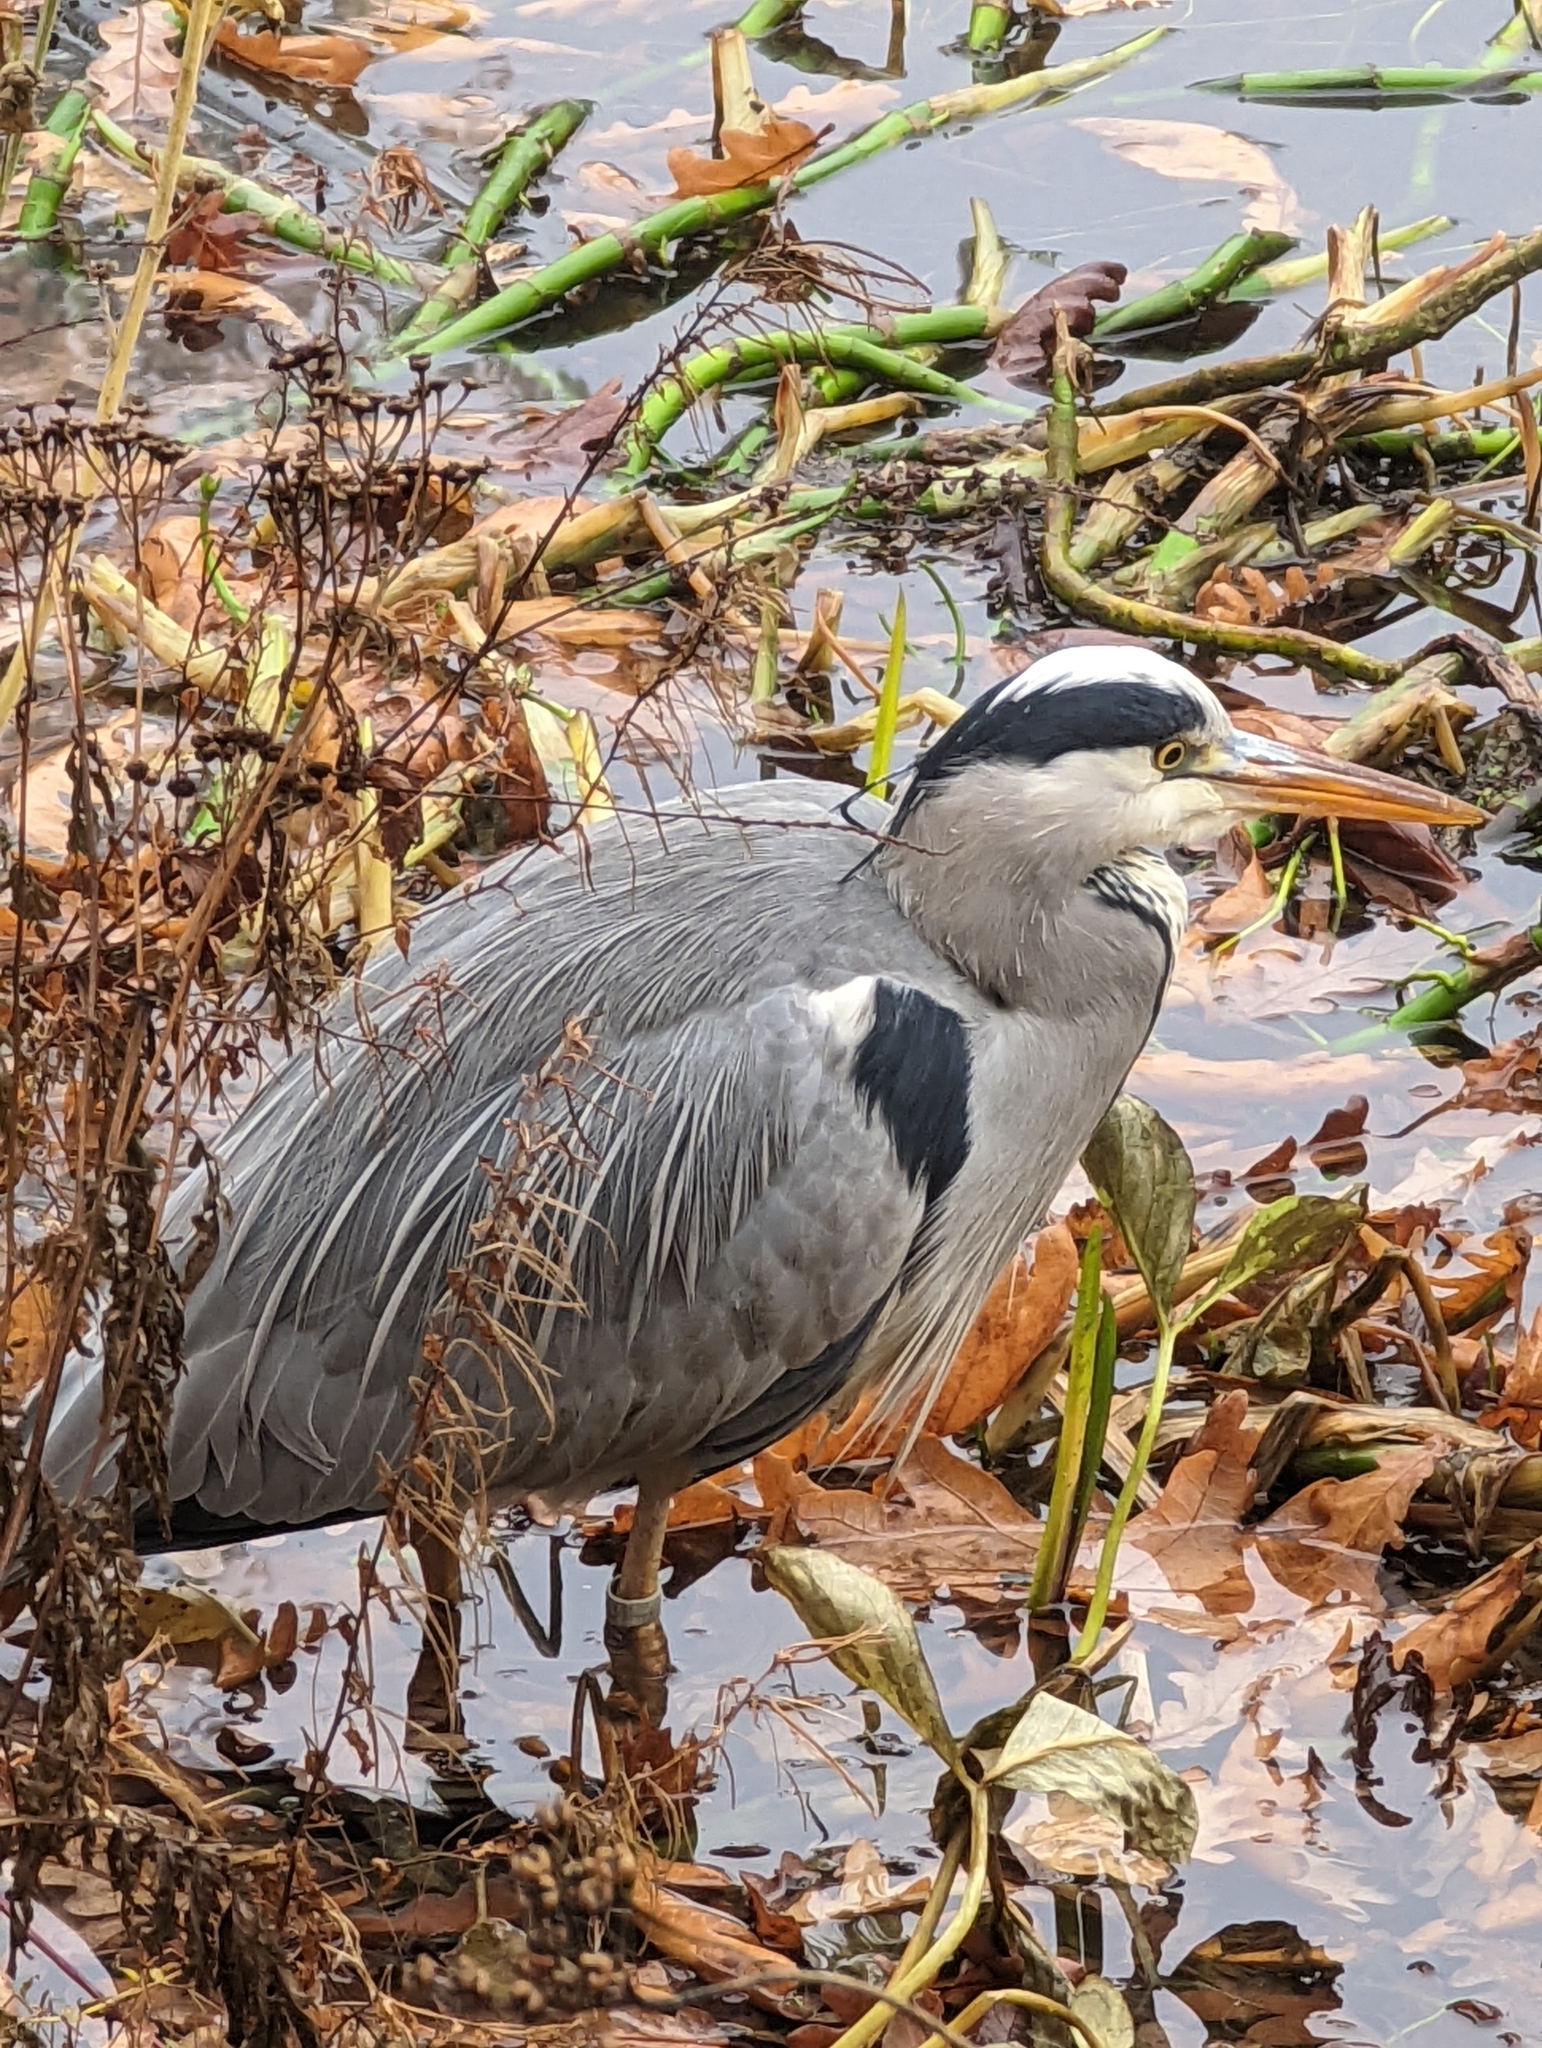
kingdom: Animalia
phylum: Chordata
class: Aves
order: Pelecaniformes
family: Ardeidae
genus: Ardea
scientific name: Ardea cinerea
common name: Grey heron
